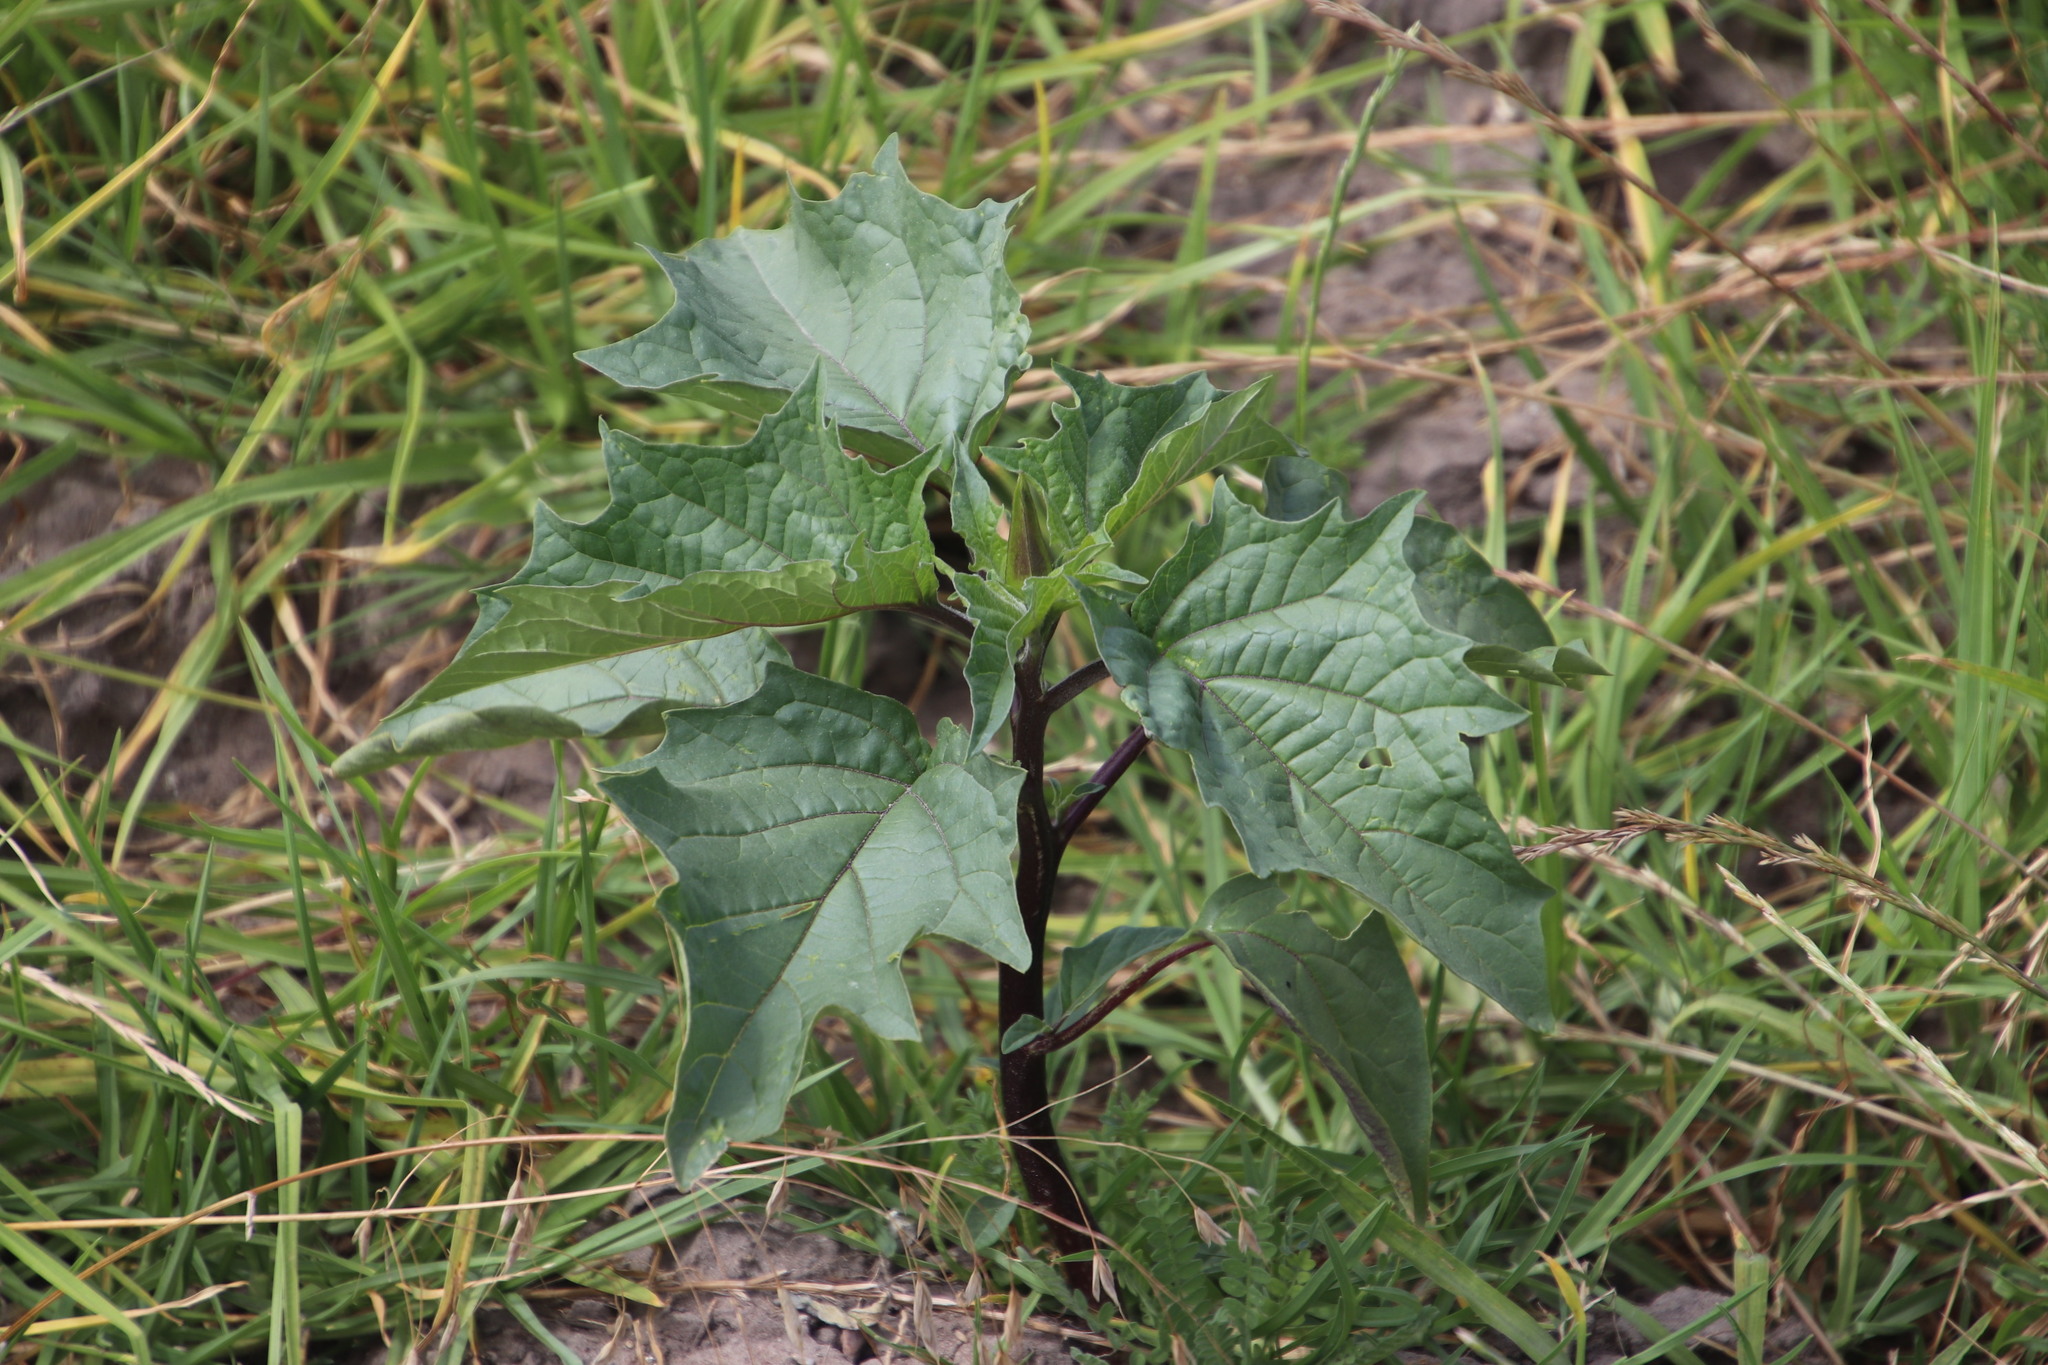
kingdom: Plantae
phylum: Tracheophyta
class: Magnoliopsida
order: Solanales
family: Solanaceae
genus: Datura
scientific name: Datura stramonium
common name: Thorn-apple
